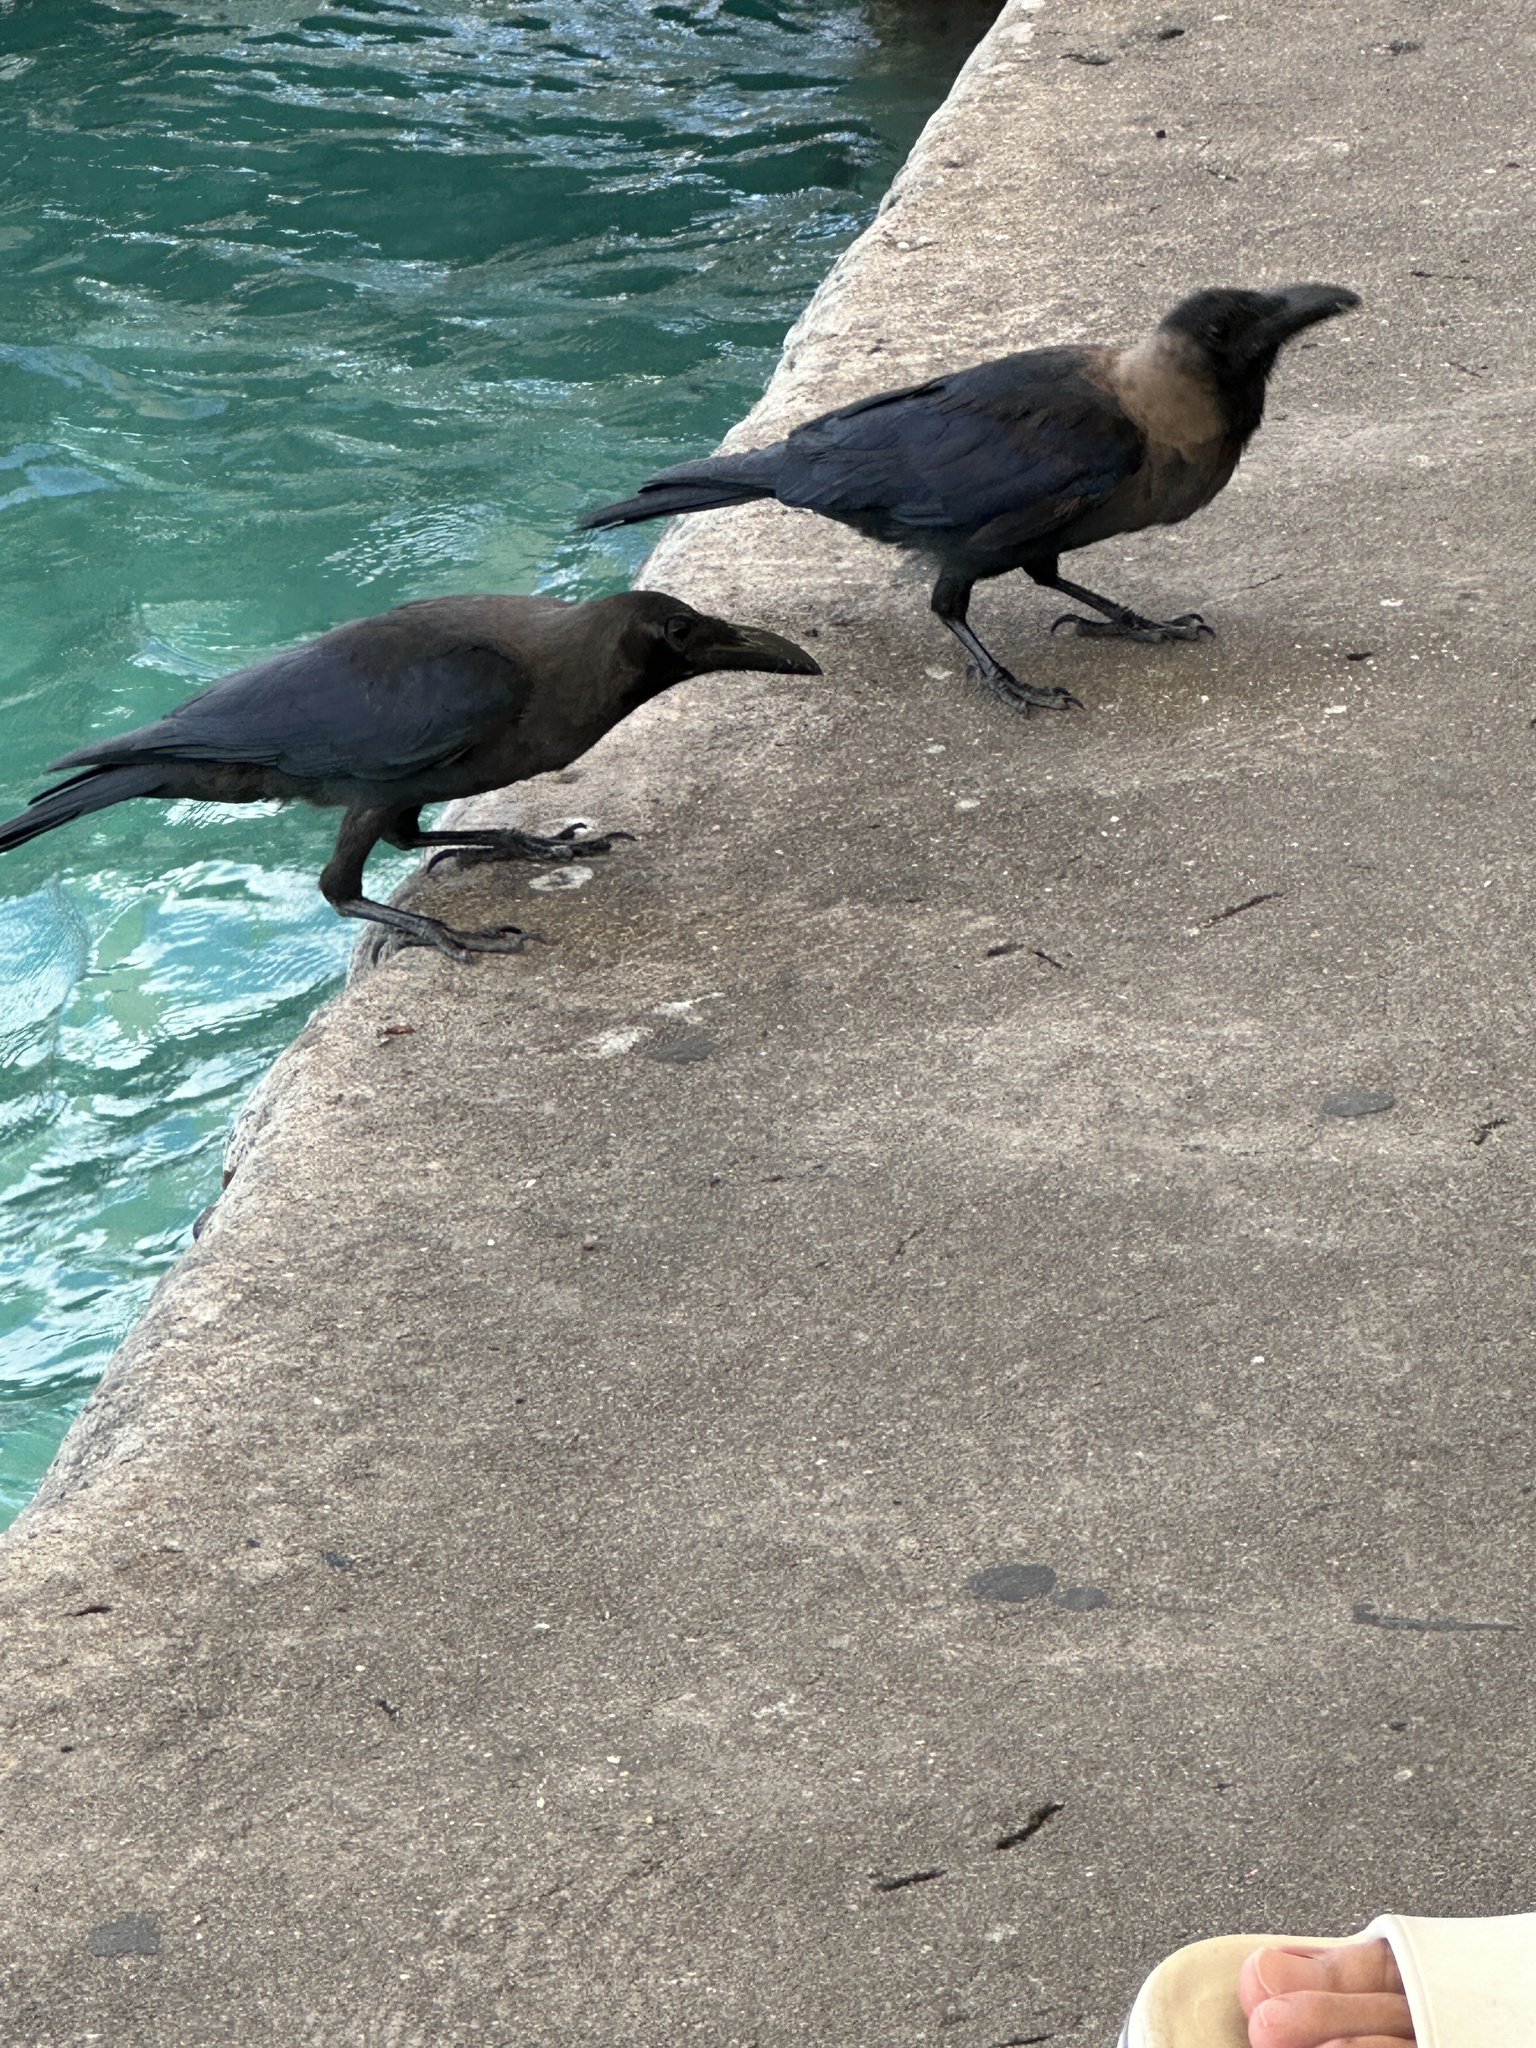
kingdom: Animalia
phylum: Chordata
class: Aves
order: Passeriformes
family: Corvidae
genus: Corvus
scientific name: Corvus splendens
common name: House crow
